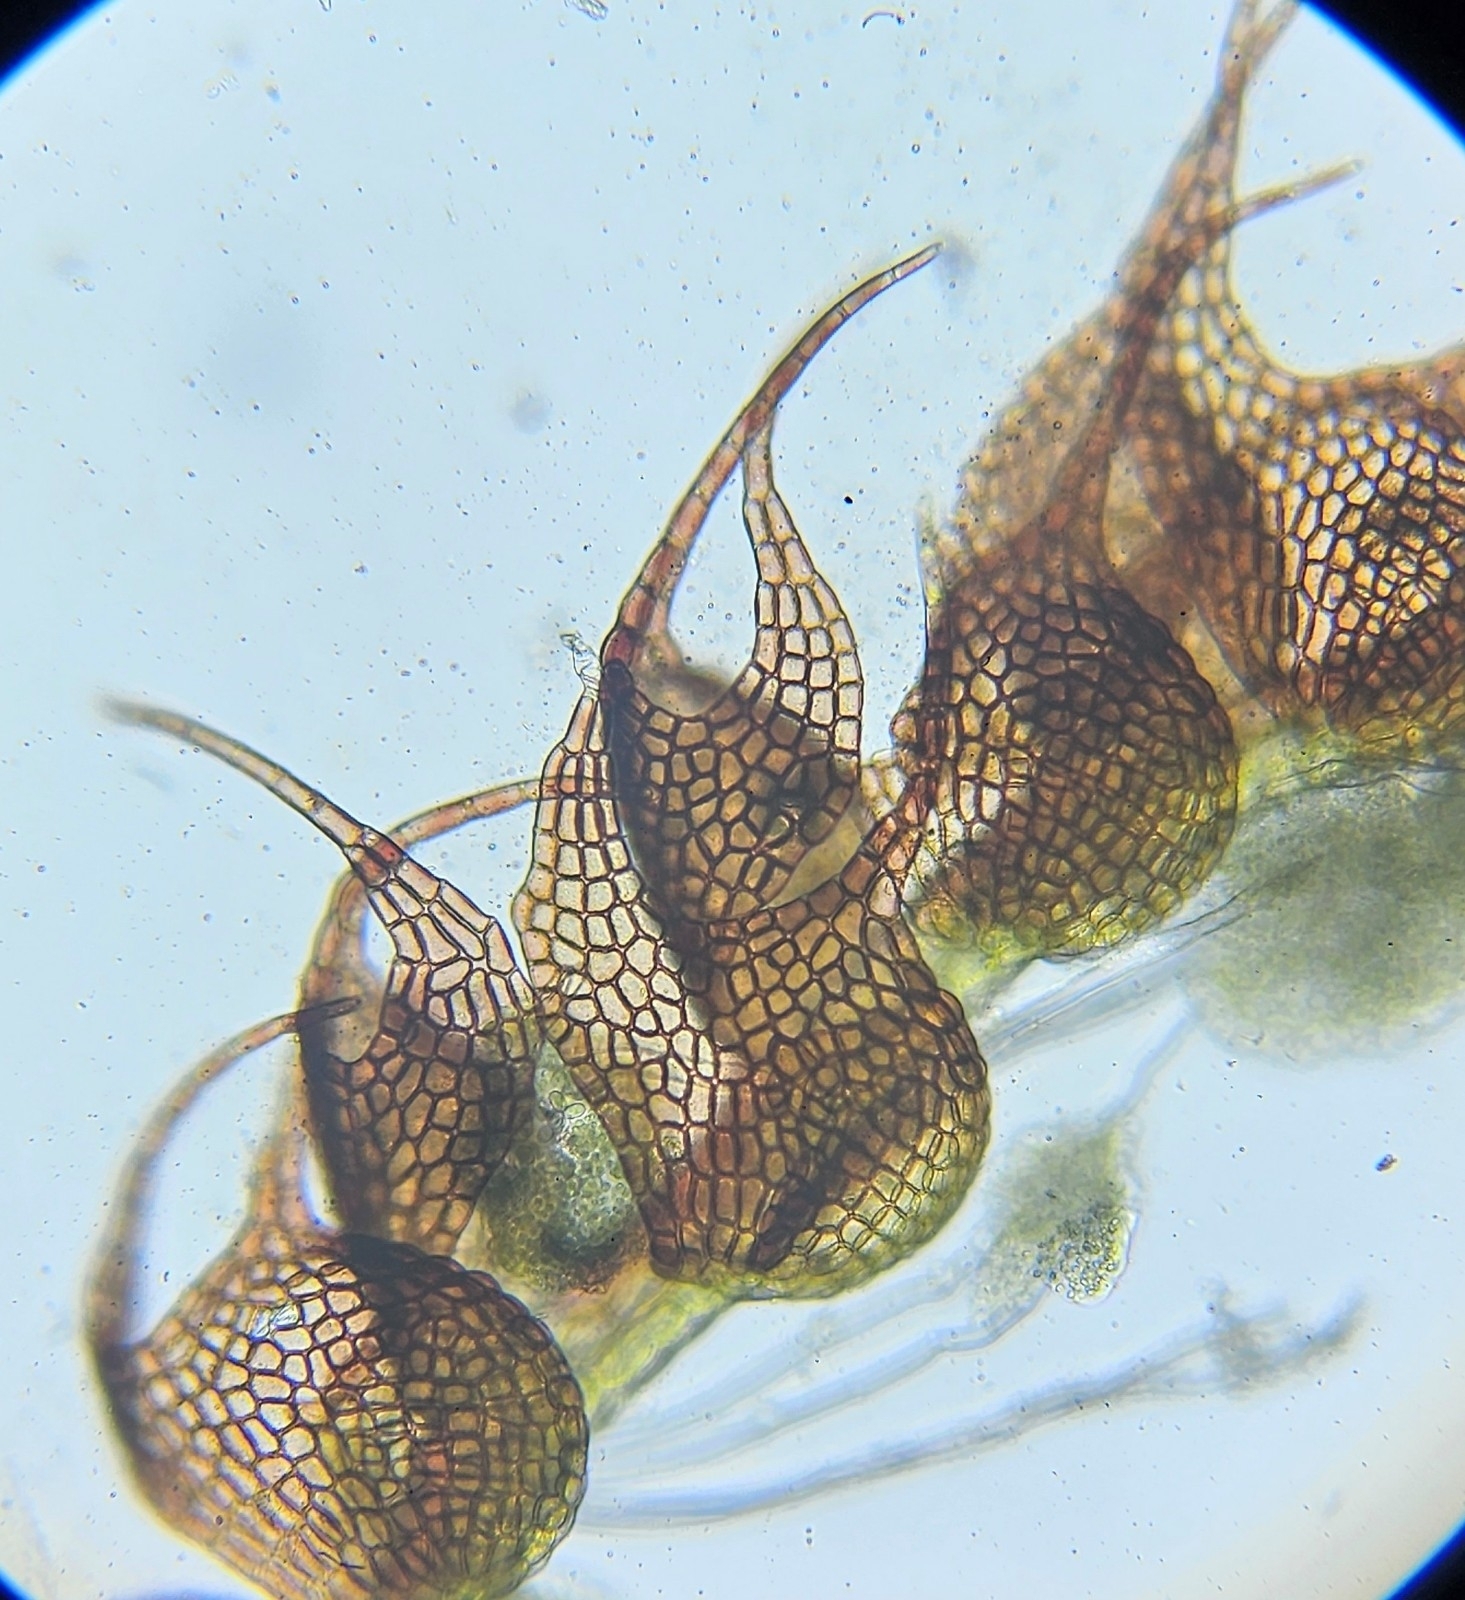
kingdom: Plantae
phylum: Marchantiophyta
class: Jungermanniopsida
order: Jungermanniales
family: Cephaloziaceae
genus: Nowellia
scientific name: Nowellia curvifolia
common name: Wood rustwort
